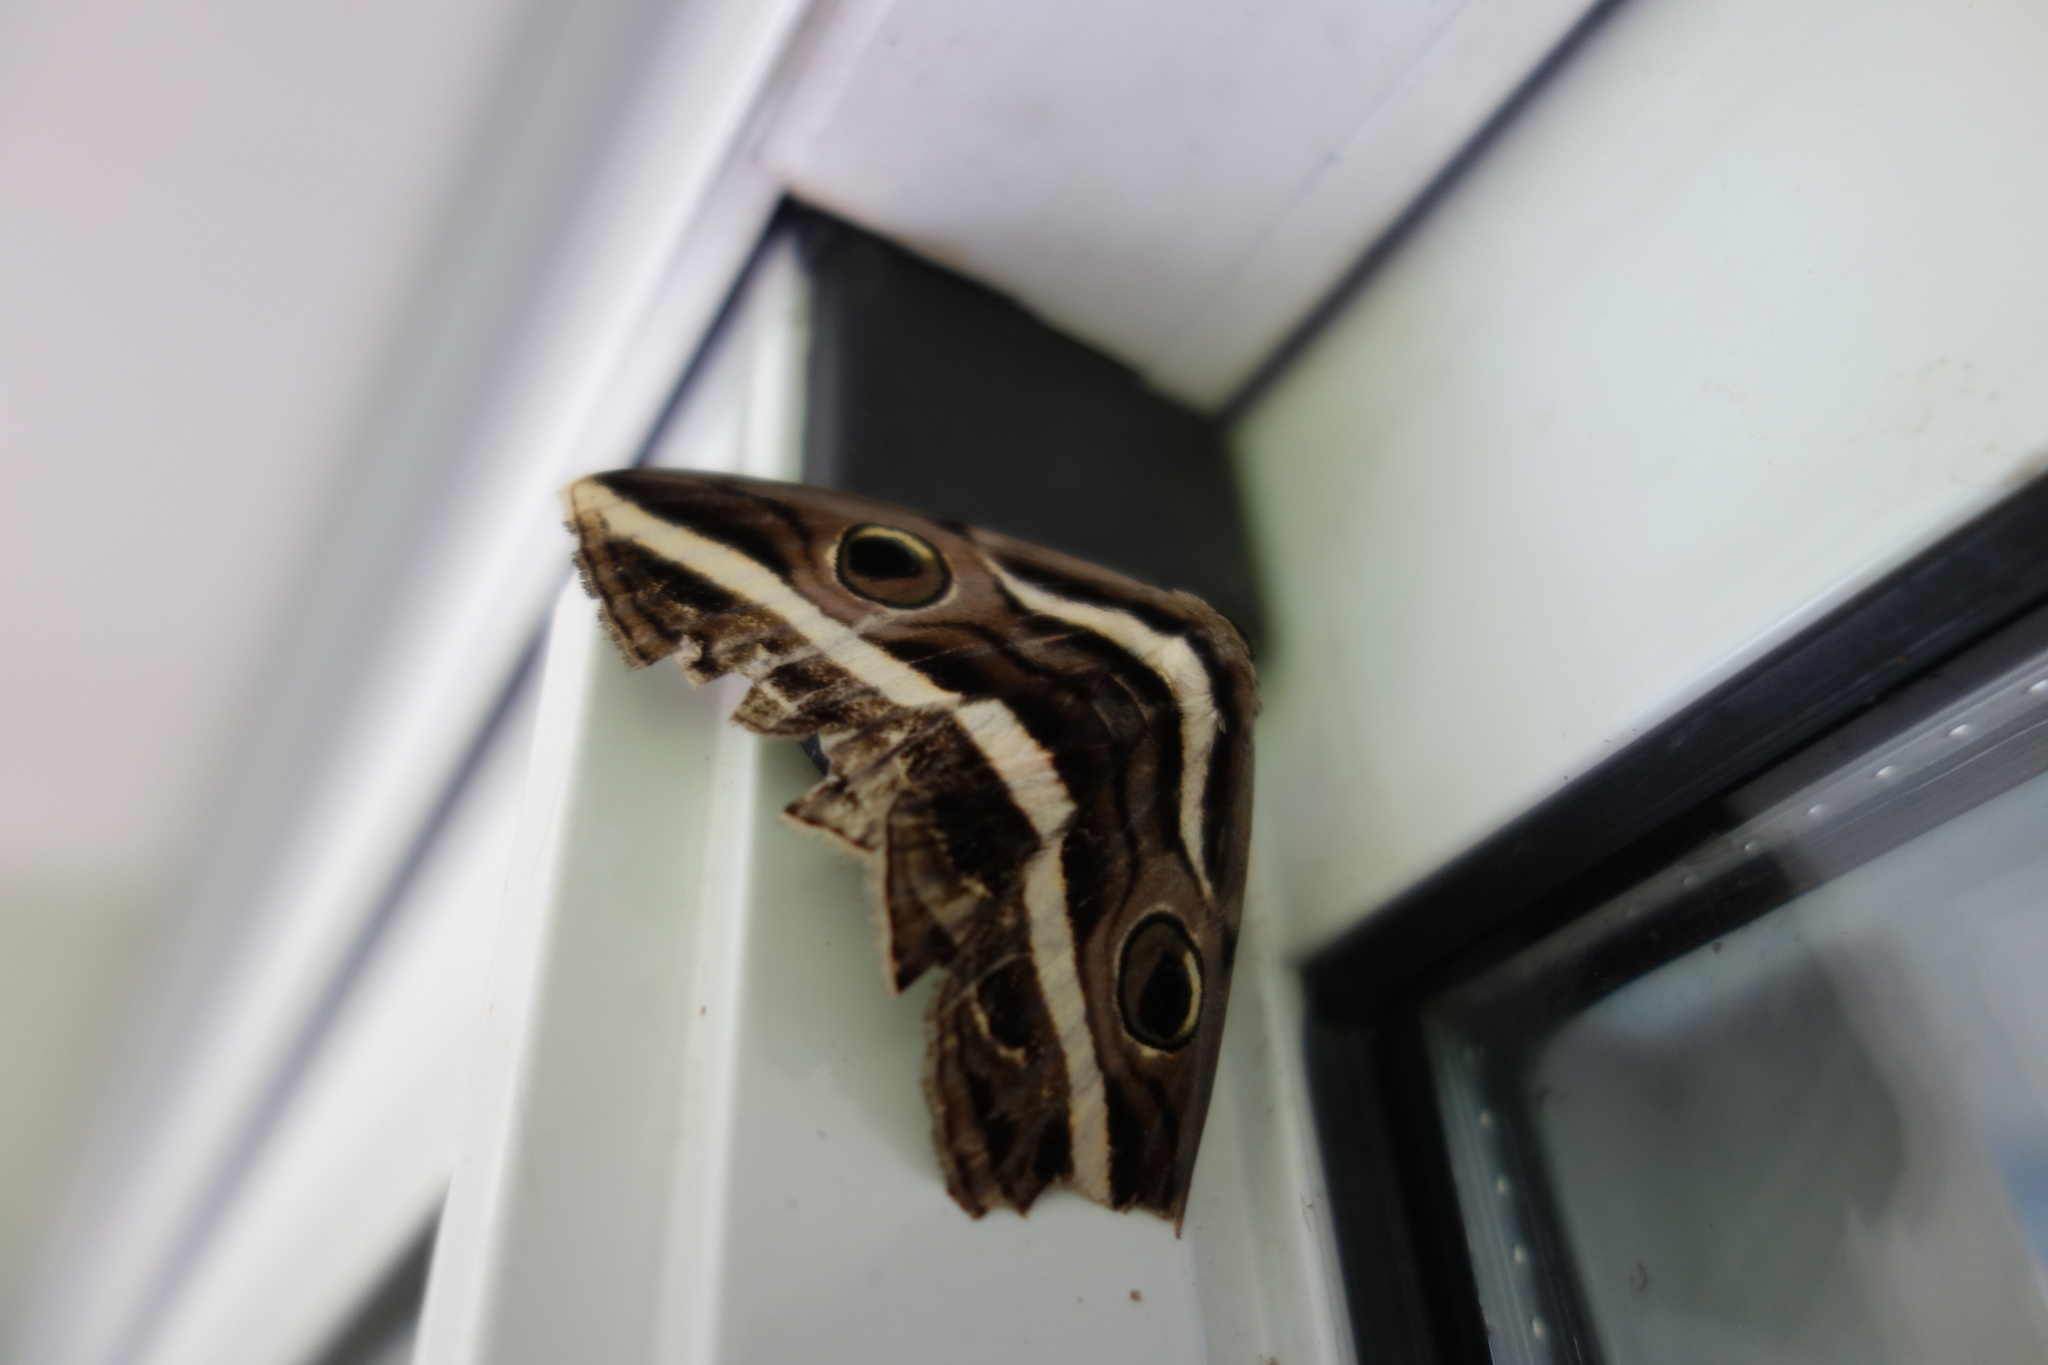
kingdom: Animalia
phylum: Arthropoda
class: Insecta
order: Lepidoptera
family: Erebidae
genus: Donuca
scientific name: Donuca rubropicta
